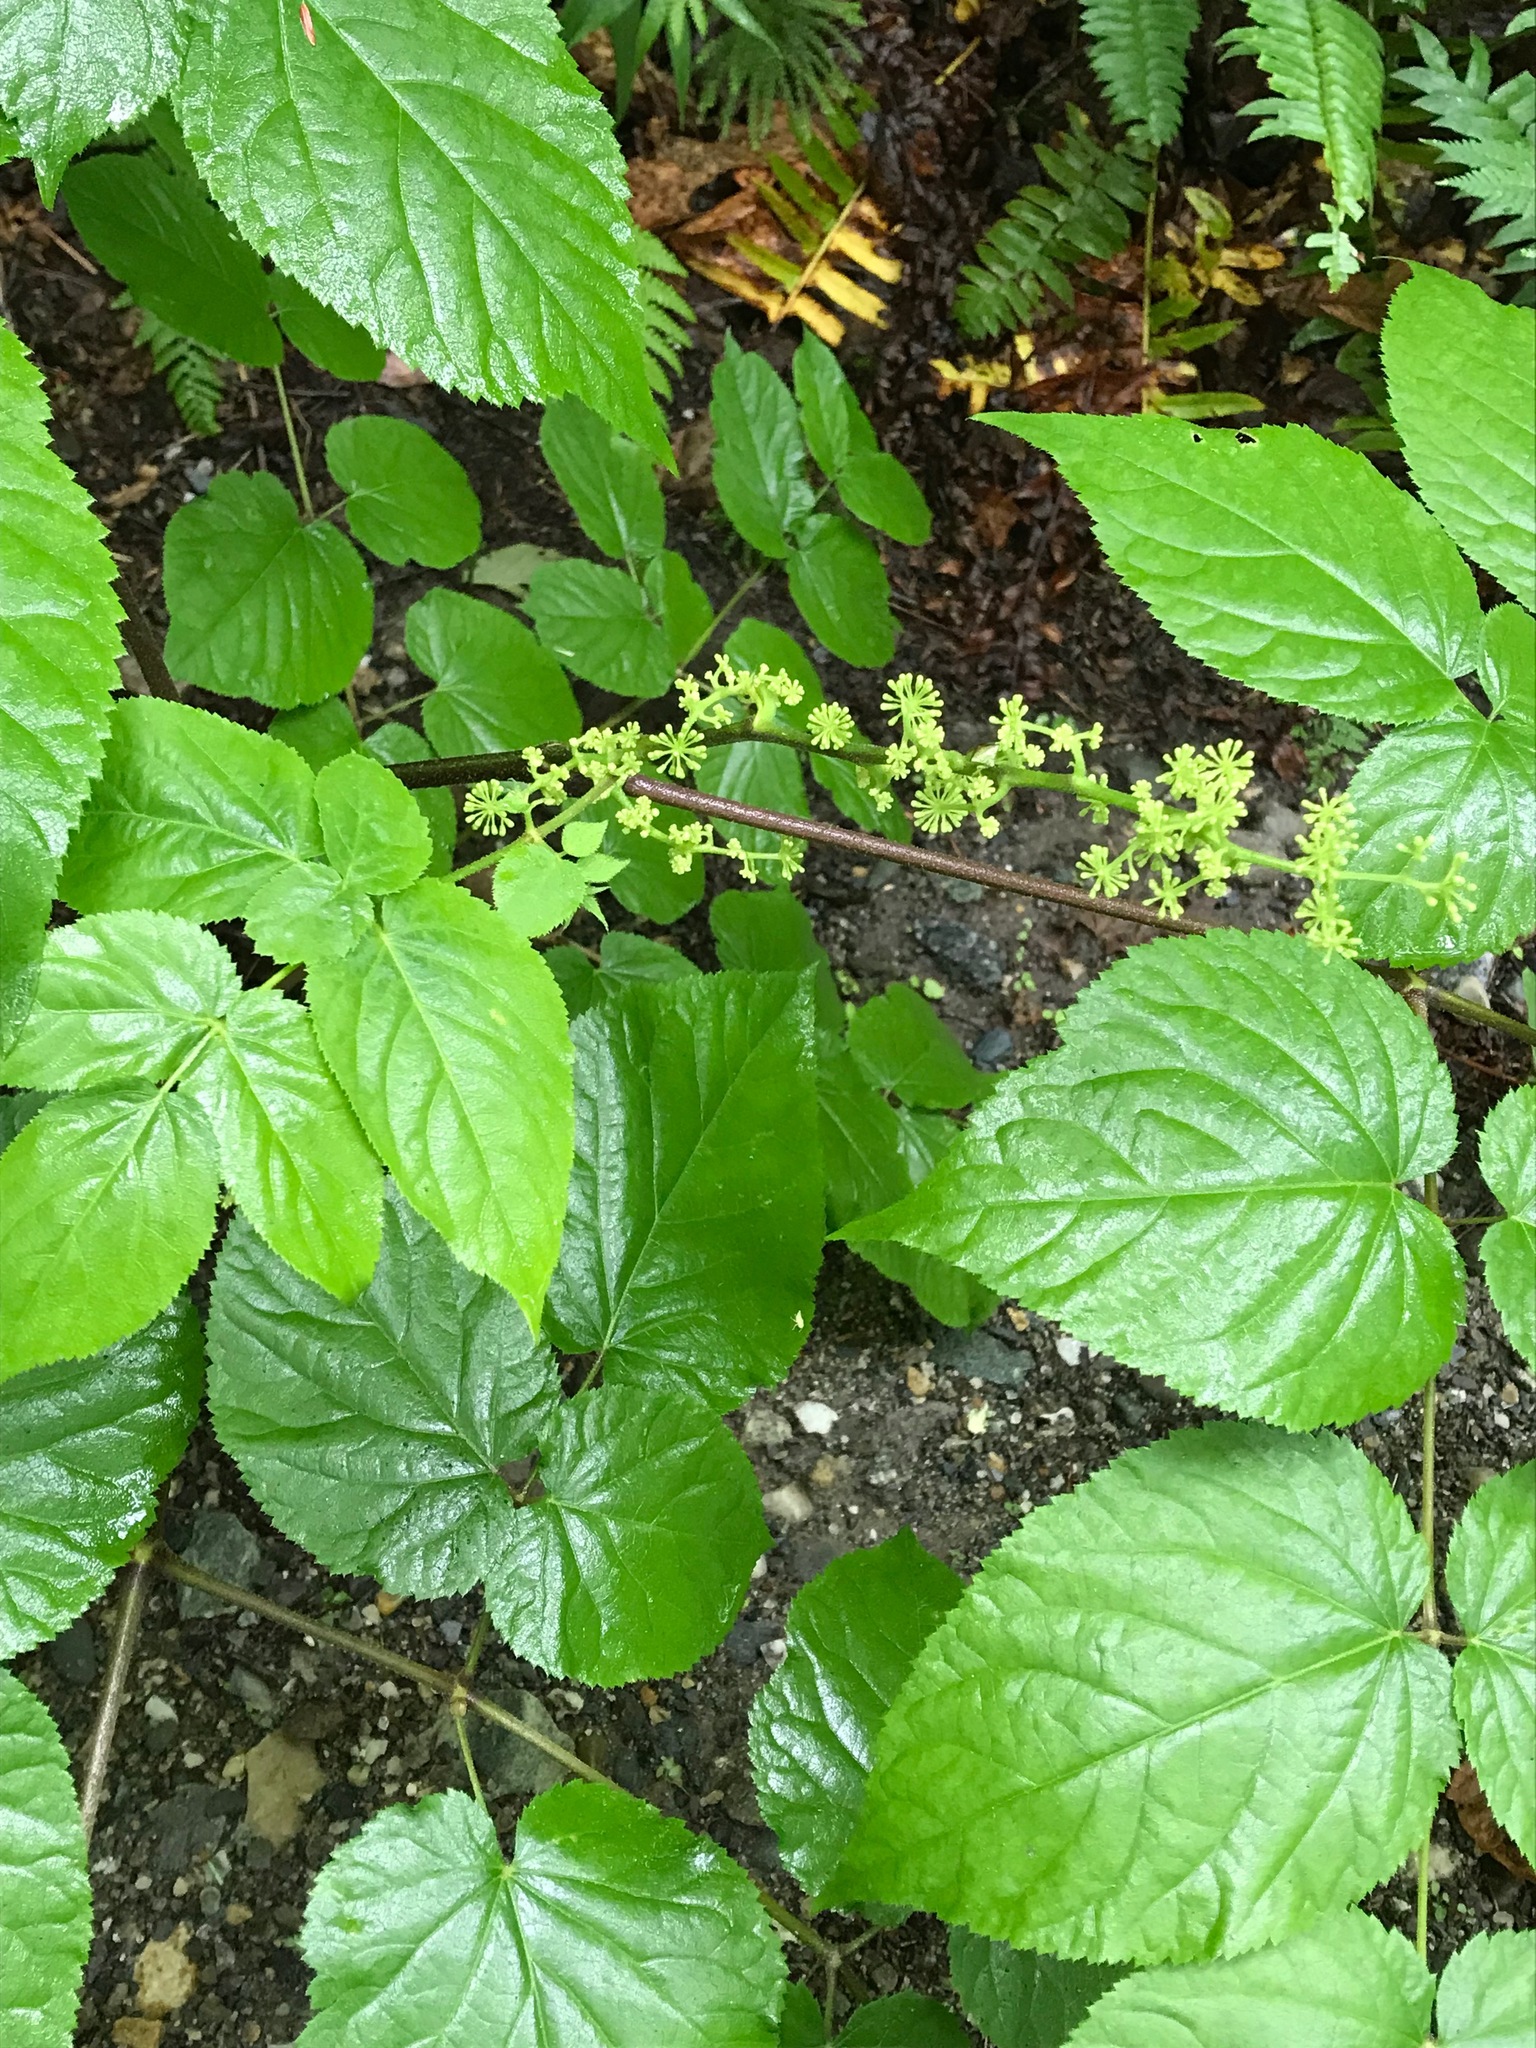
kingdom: Plantae
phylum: Tracheophyta
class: Magnoliopsida
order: Apiales
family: Araliaceae
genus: Aralia
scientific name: Aralia racemosa
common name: American-spikenard
